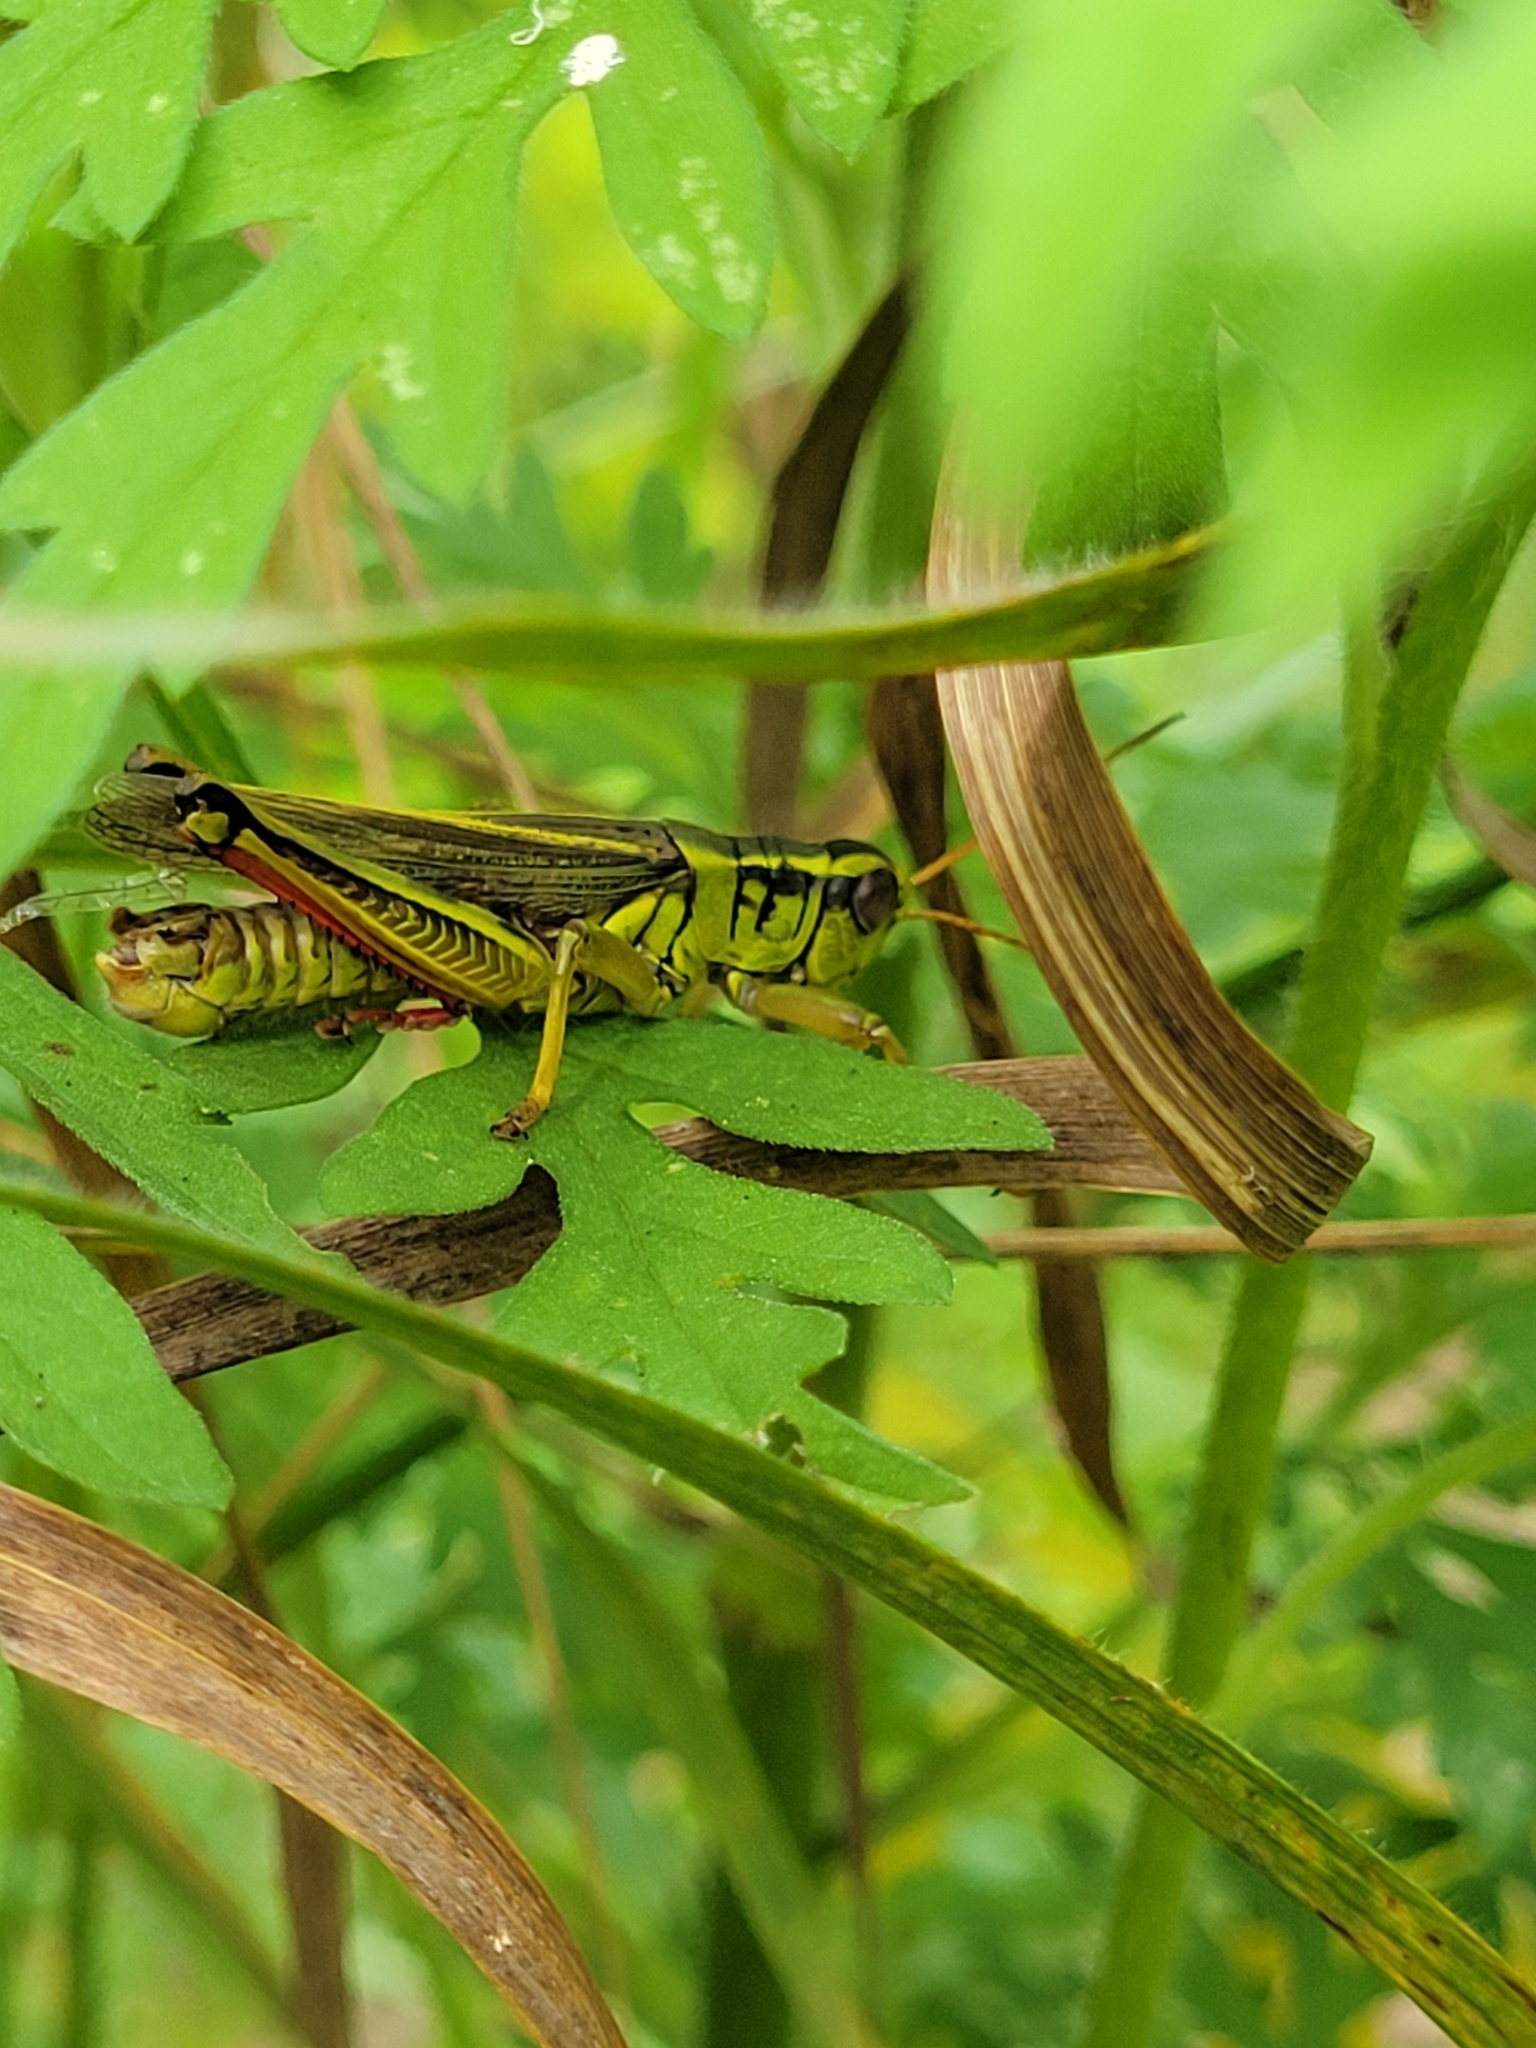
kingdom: Animalia
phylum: Arthropoda
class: Insecta
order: Orthoptera
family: Acrididae
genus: Melanoplus
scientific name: Melanoplus bivittatus
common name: Two-striped grasshopper
